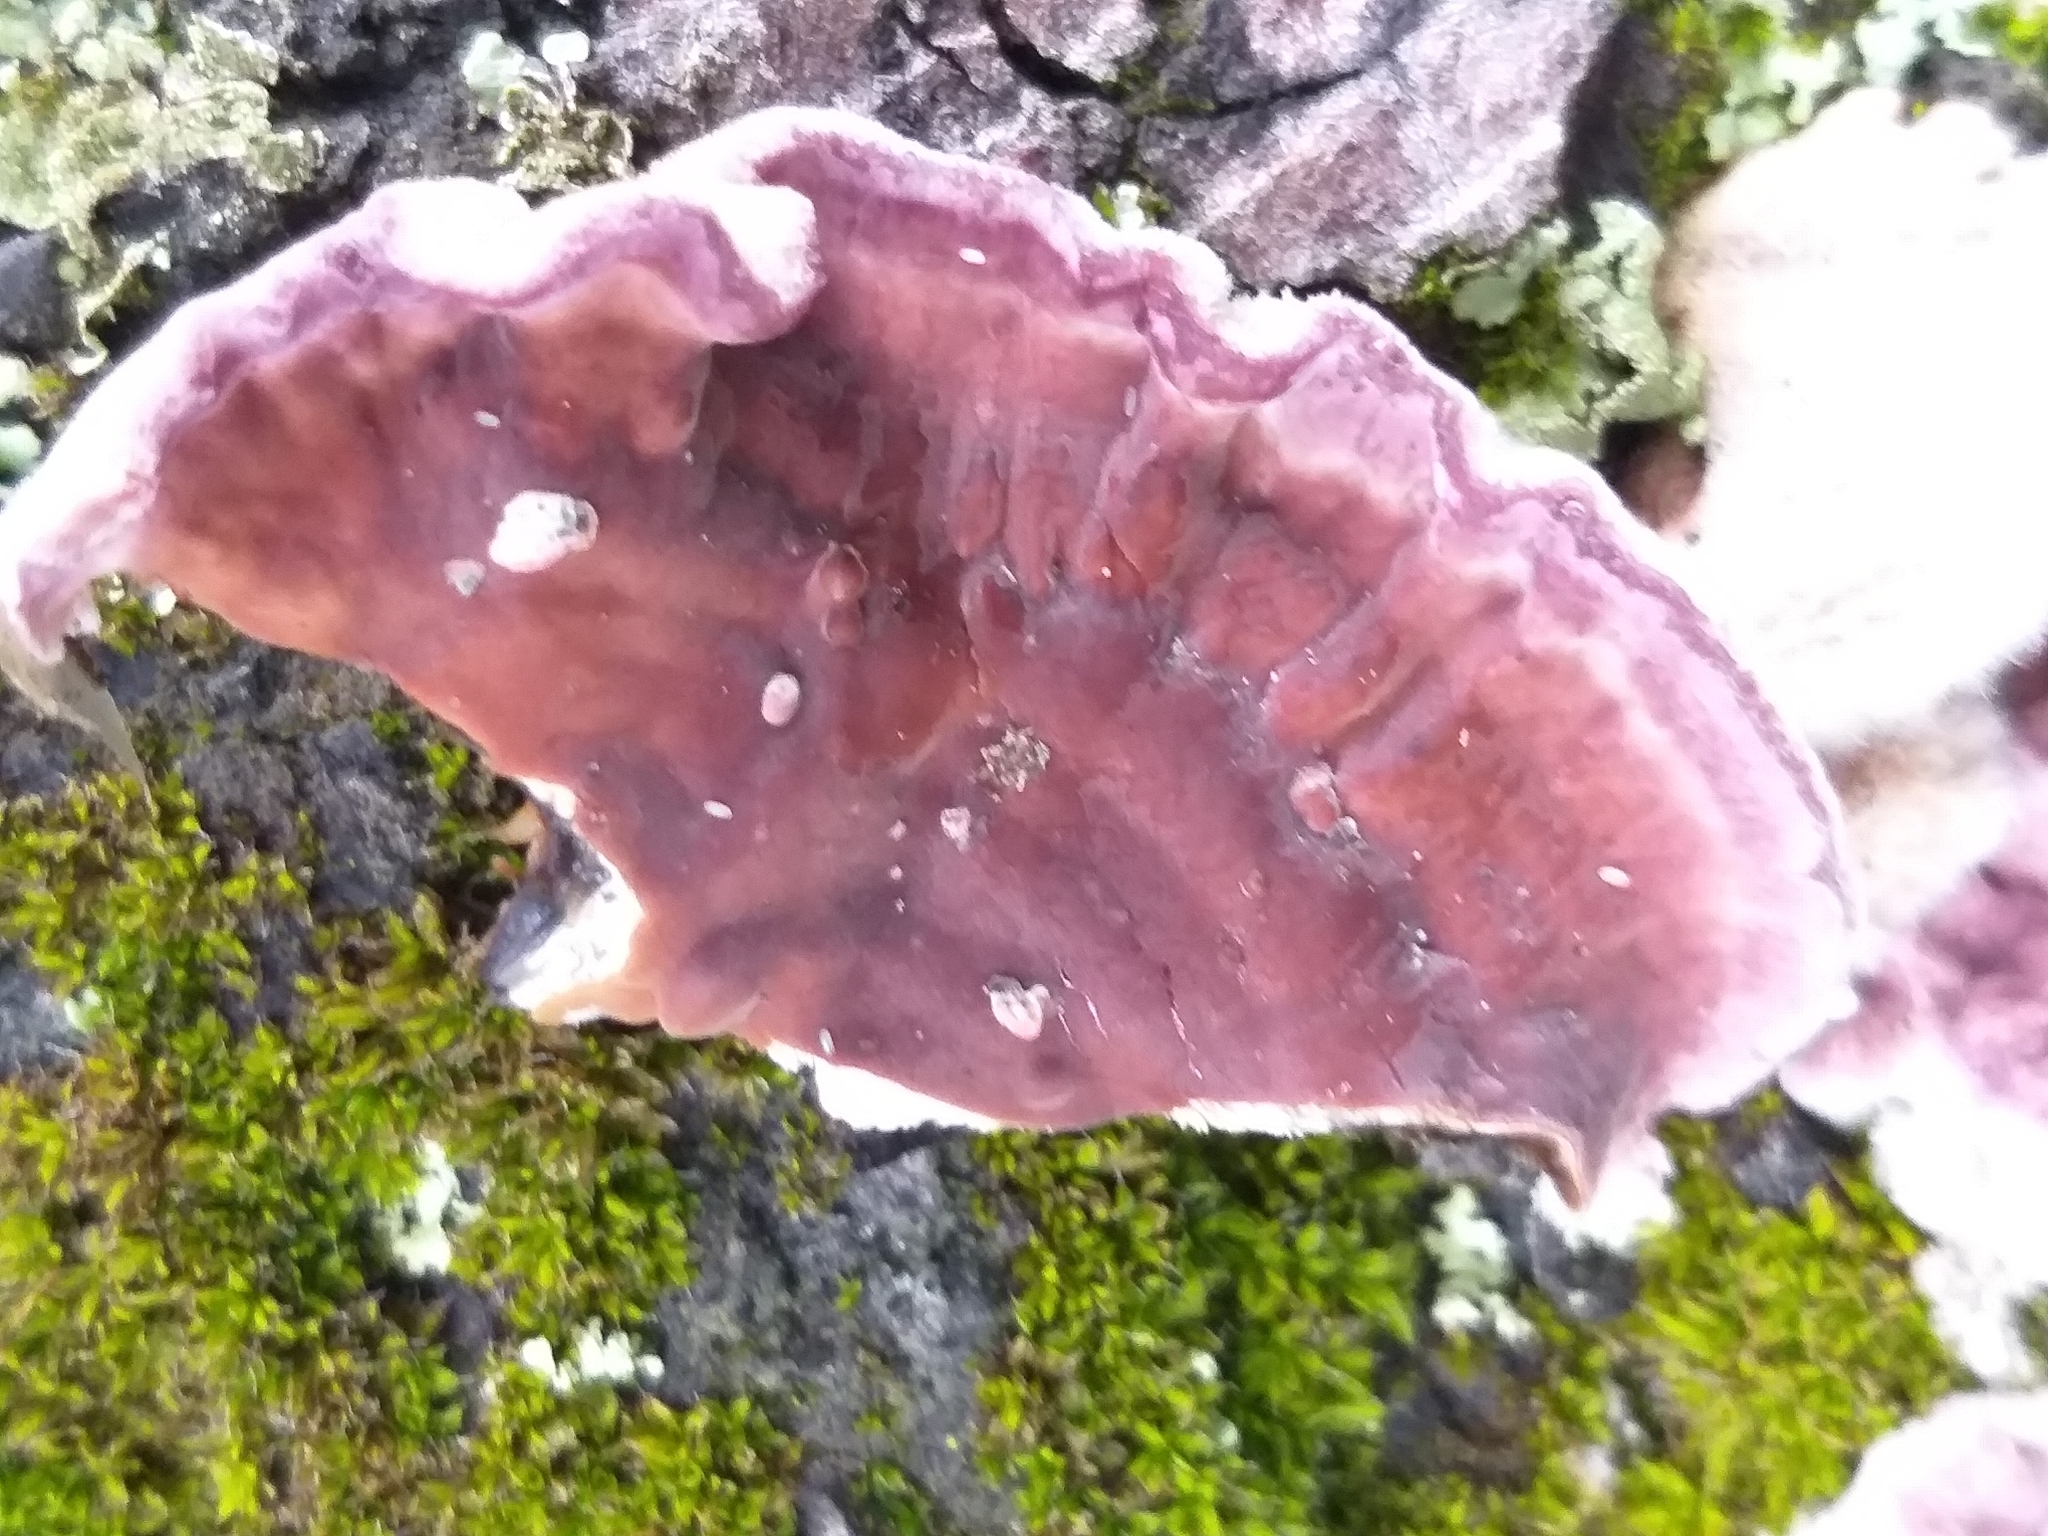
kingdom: Fungi
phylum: Basidiomycota
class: Agaricomycetes
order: Agaricales
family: Cyphellaceae
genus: Chondrostereum
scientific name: Chondrostereum purpureum
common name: Silver leaf disease
